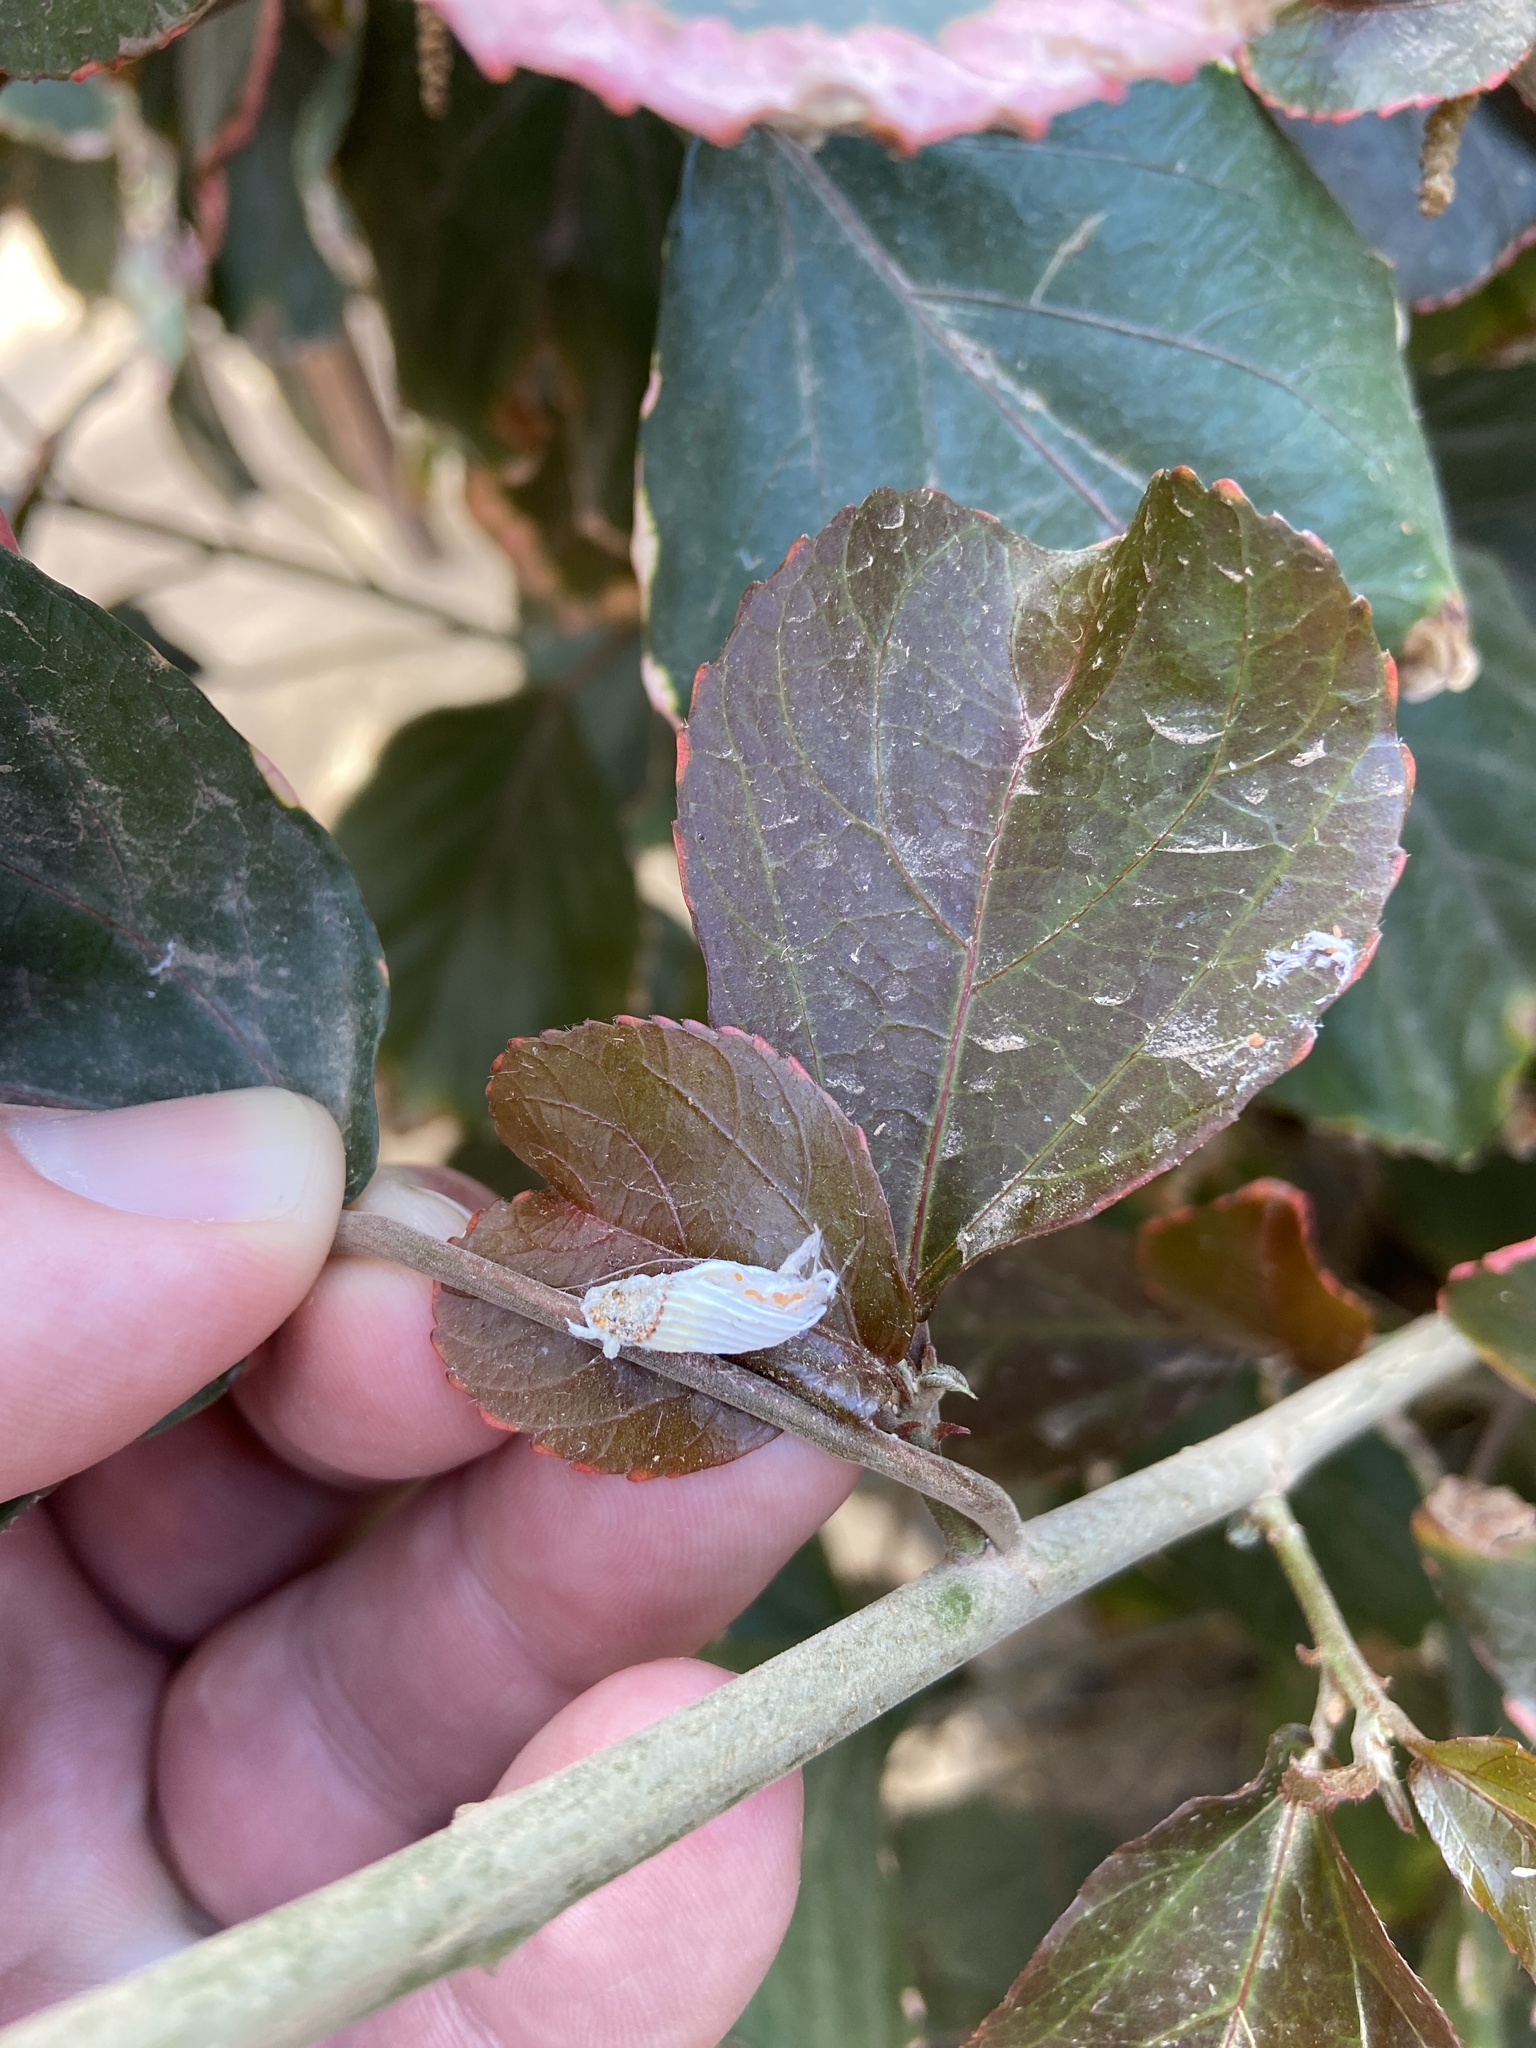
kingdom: Animalia
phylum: Arthropoda
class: Insecta
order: Hemiptera
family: Margarodidae
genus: Icerya
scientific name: Icerya purchasi
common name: Cottony cushion scale
